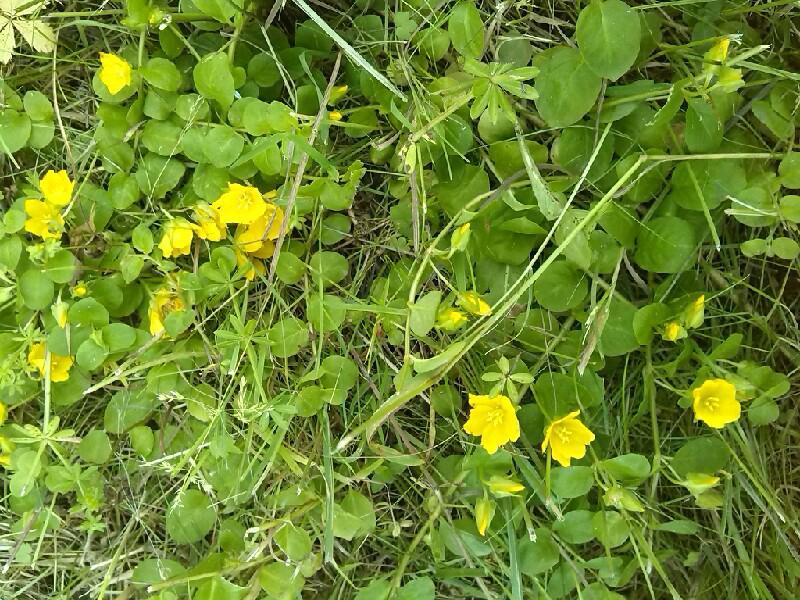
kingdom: Plantae
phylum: Tracheophyta
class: Magnoliopsida
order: Ericales
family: Primulaceae
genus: Lysimachia
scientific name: Lysimachia nummularia
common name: Moneywort
